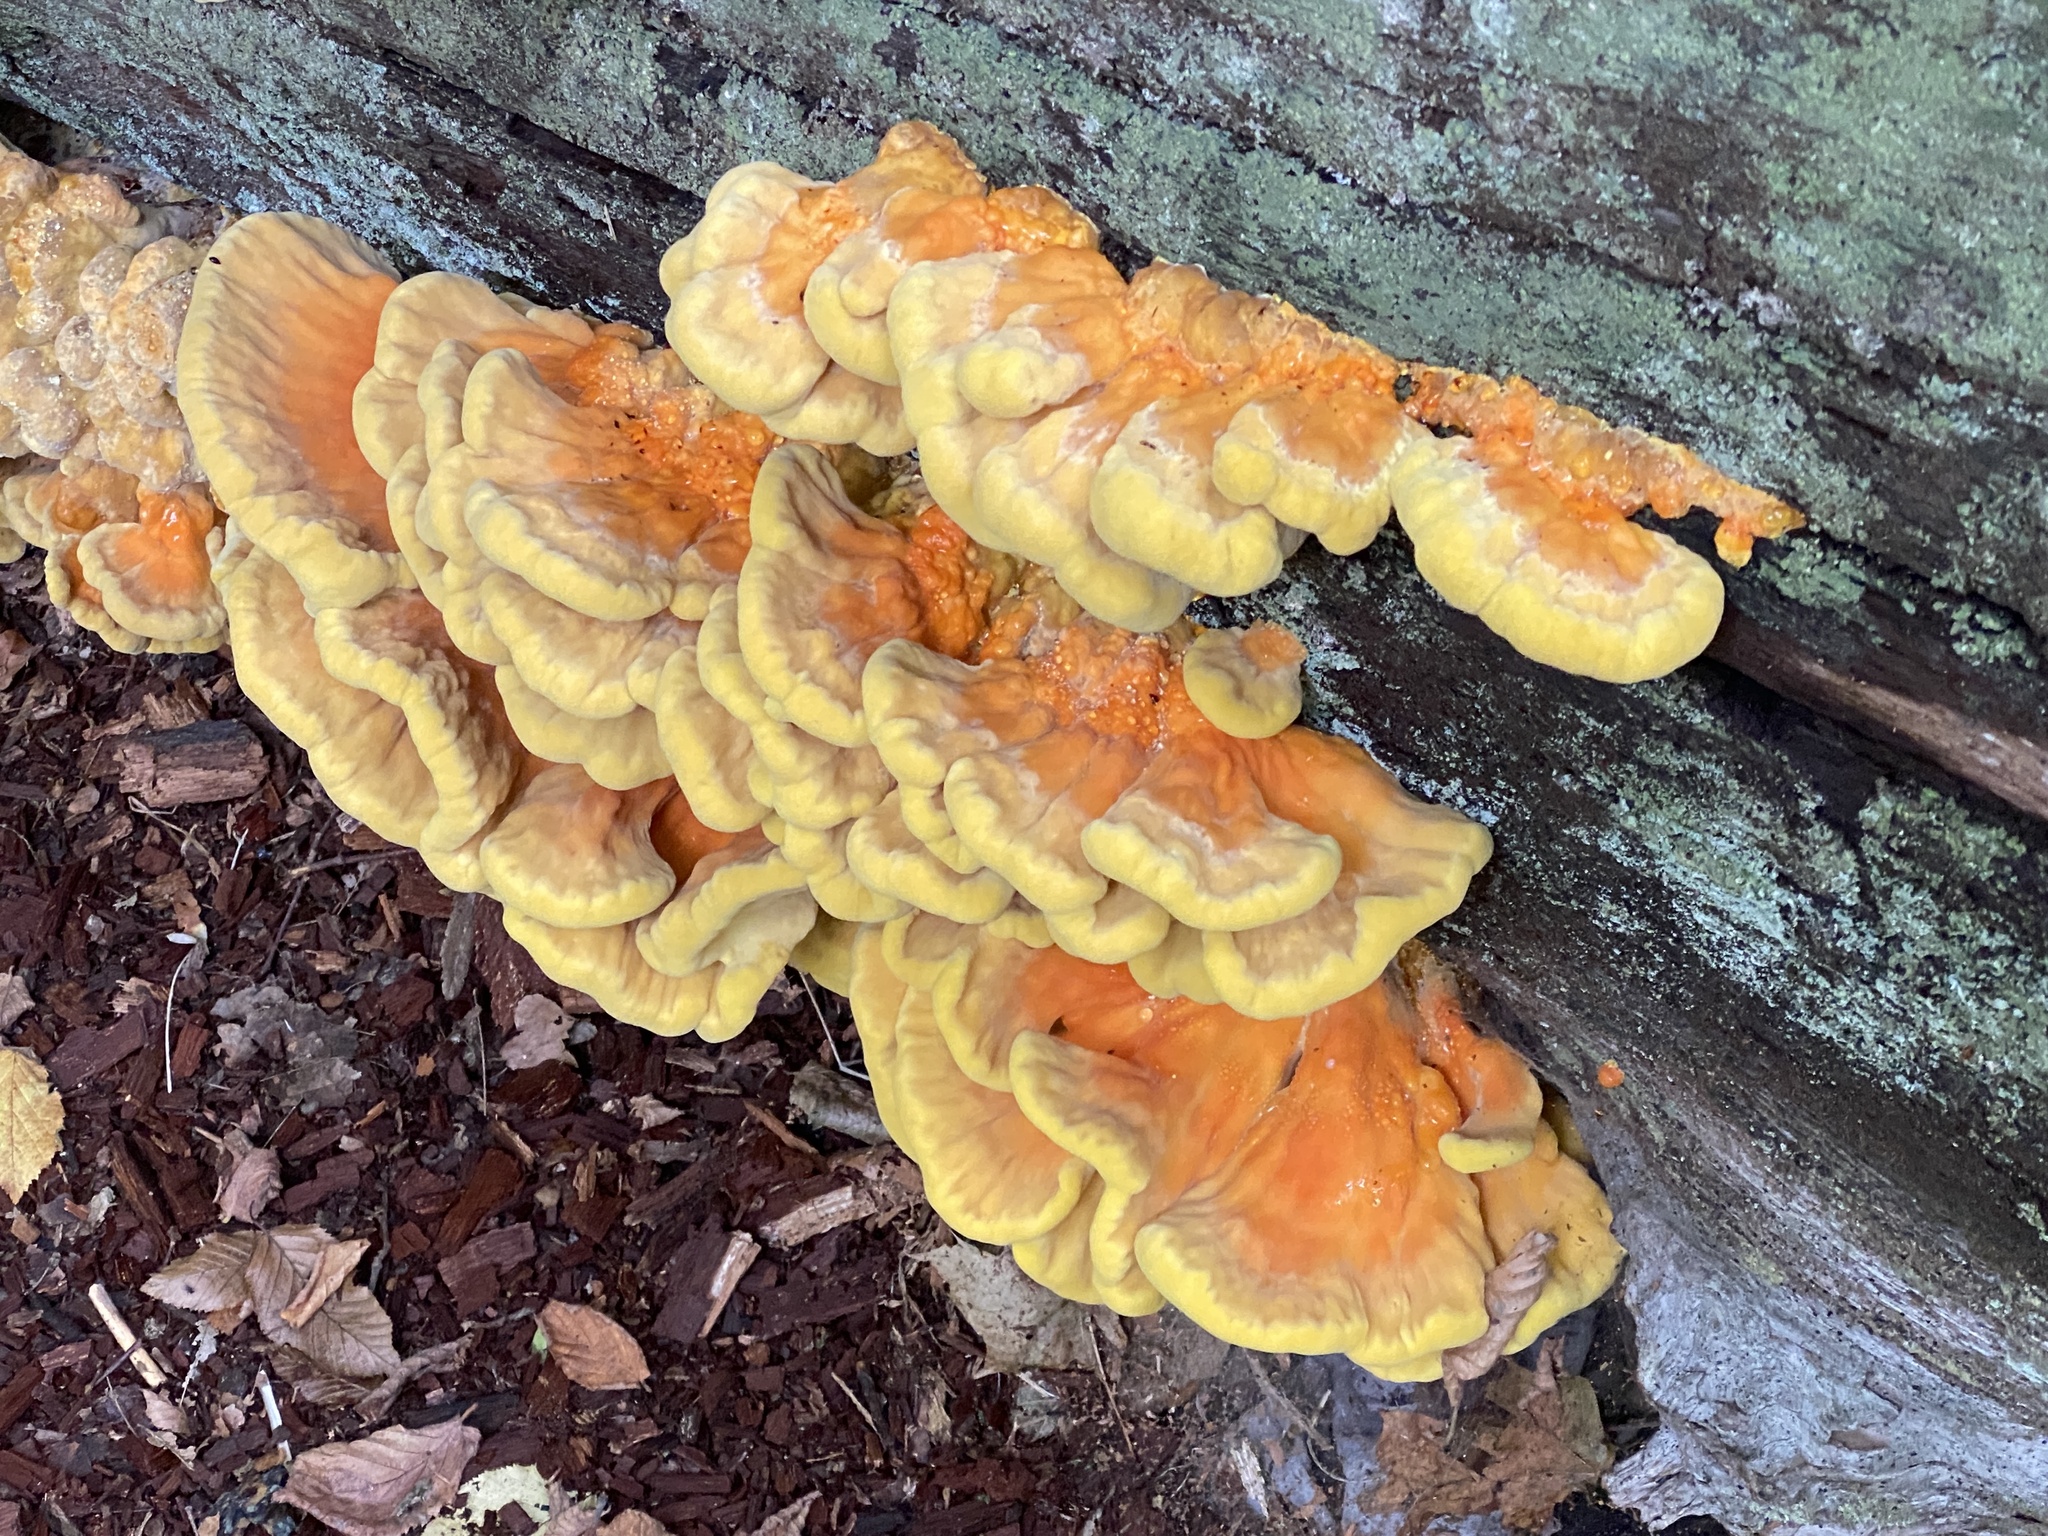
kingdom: Fungi
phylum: Basidiomycota
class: Agaricomycetes
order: Polyporales
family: Laetiporaceae
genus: Laetiporus
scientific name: Laetiporus sulphureus
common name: Chicken of the woods
